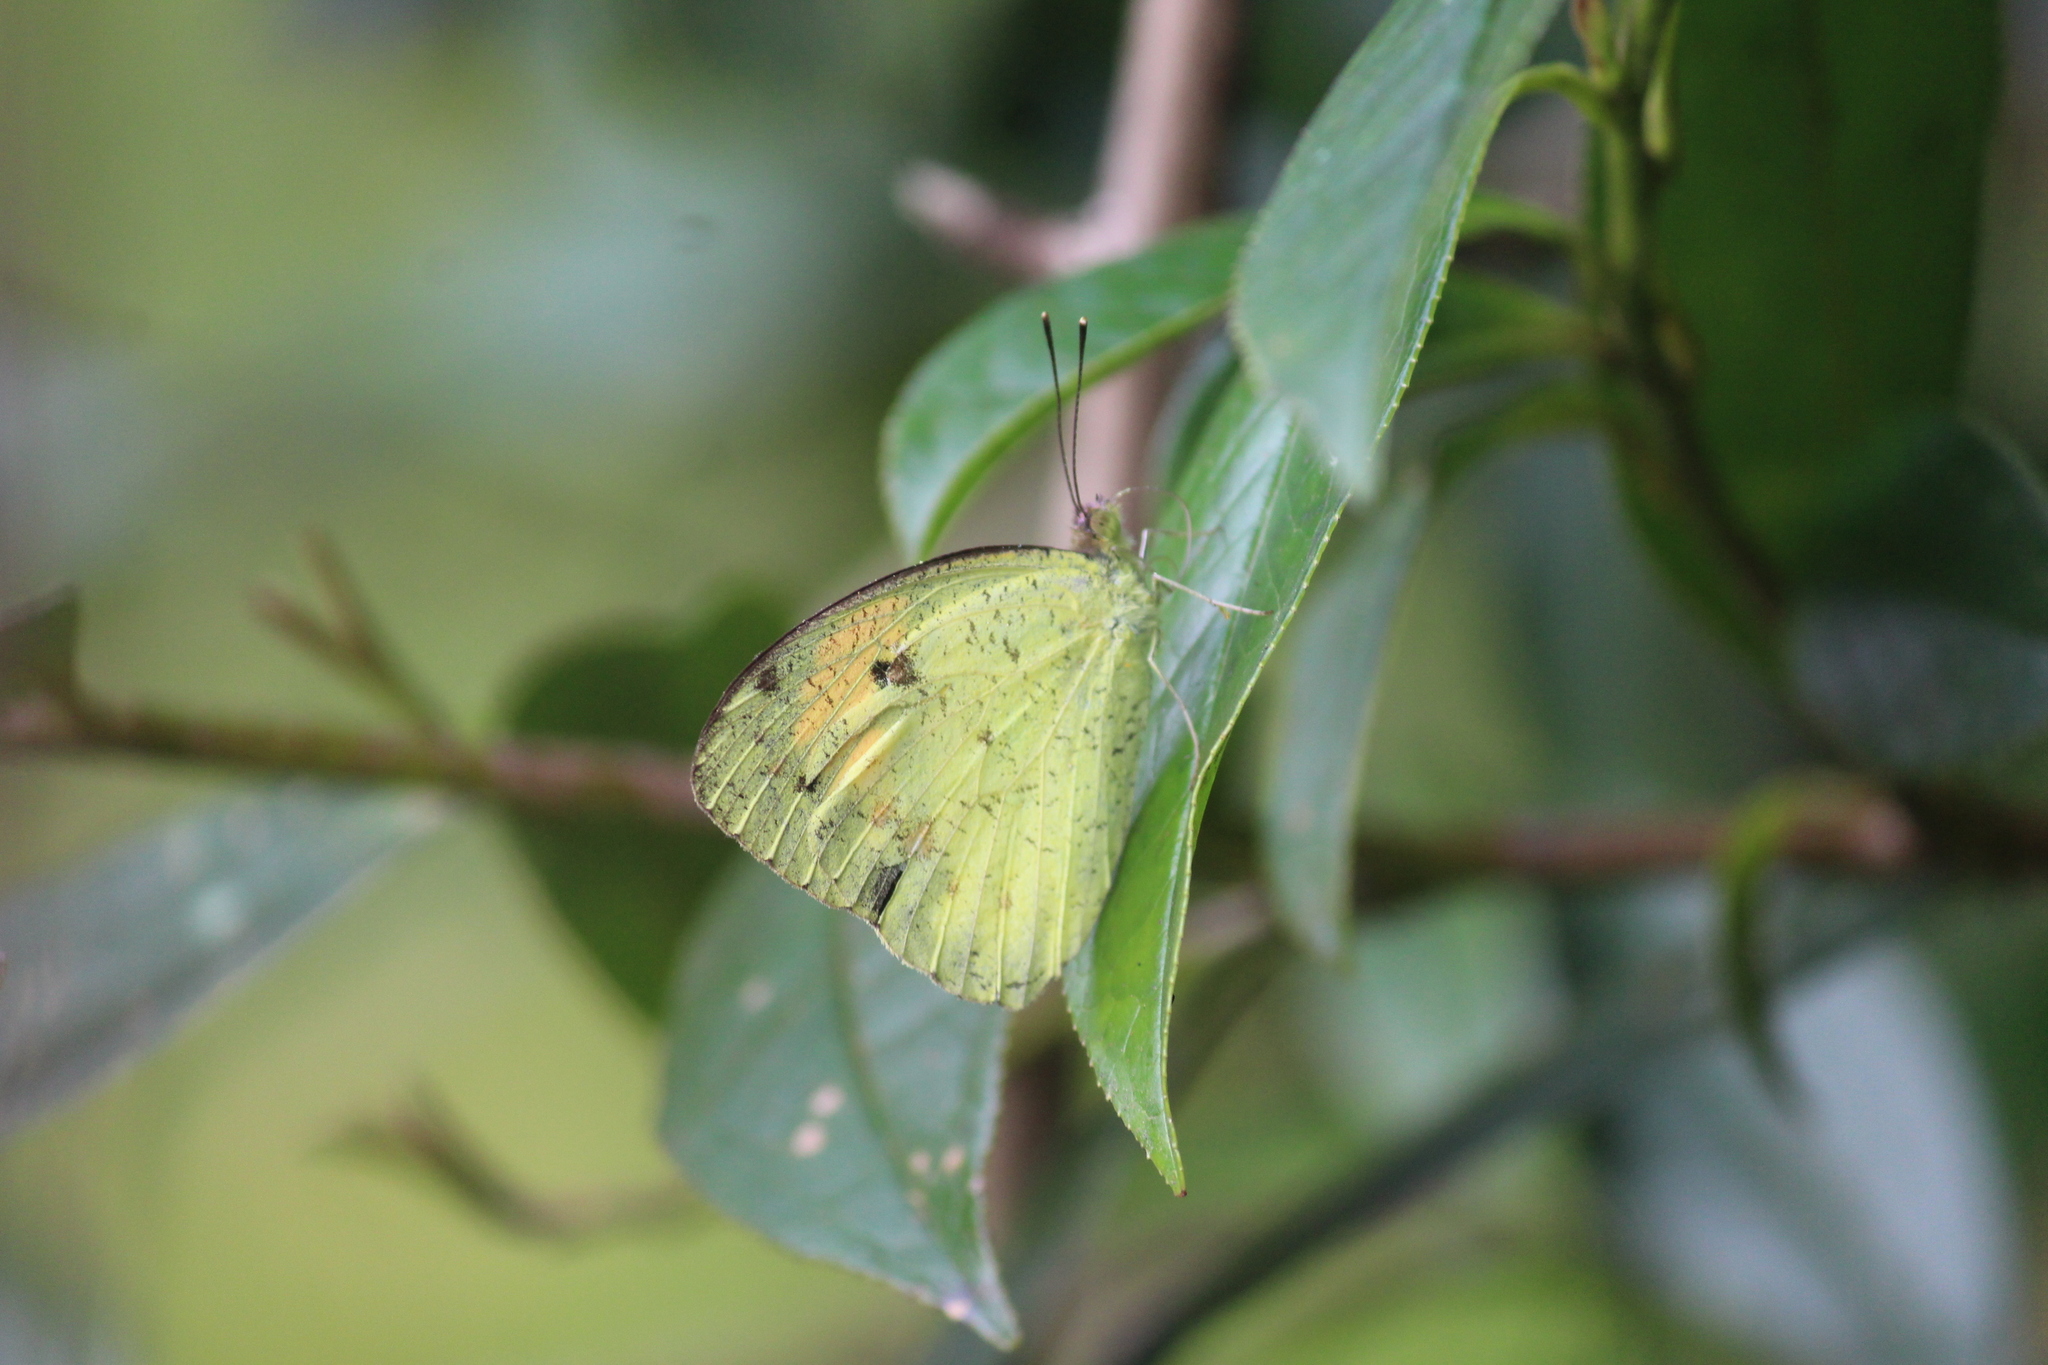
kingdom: Animalia
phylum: Arthropoda
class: Insecta
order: Lepidoptera
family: Pieridae
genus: Ixias
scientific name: Ixias pyrene
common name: Yellow orange tip
